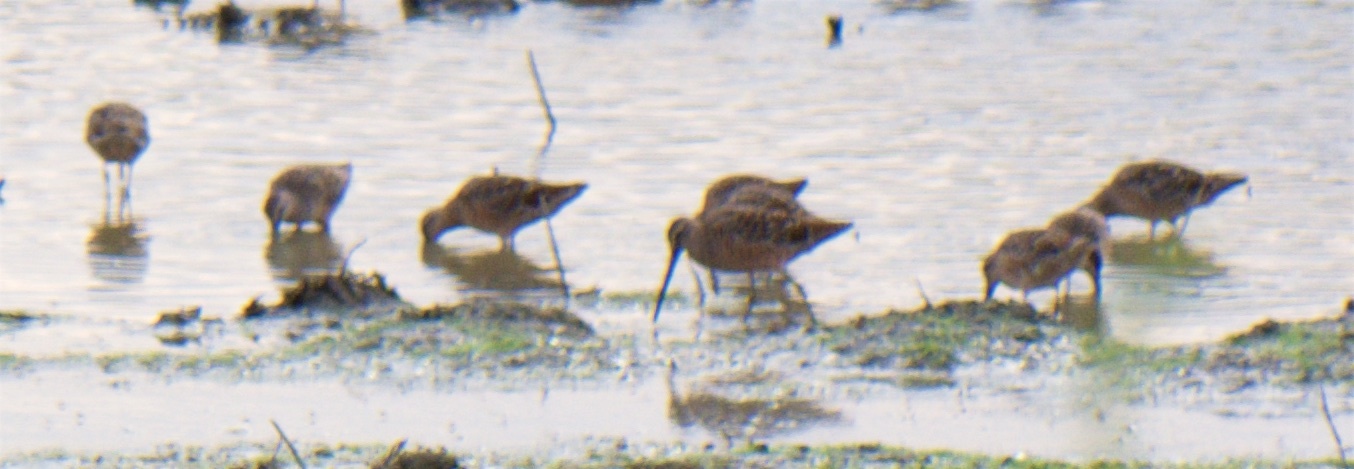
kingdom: Animalia
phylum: Chordata
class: Aves
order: Charadriiformes
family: Scolopacidae
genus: Limnodromus
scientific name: Limnodromus scolopaceus
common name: Long-billed dowitcher
